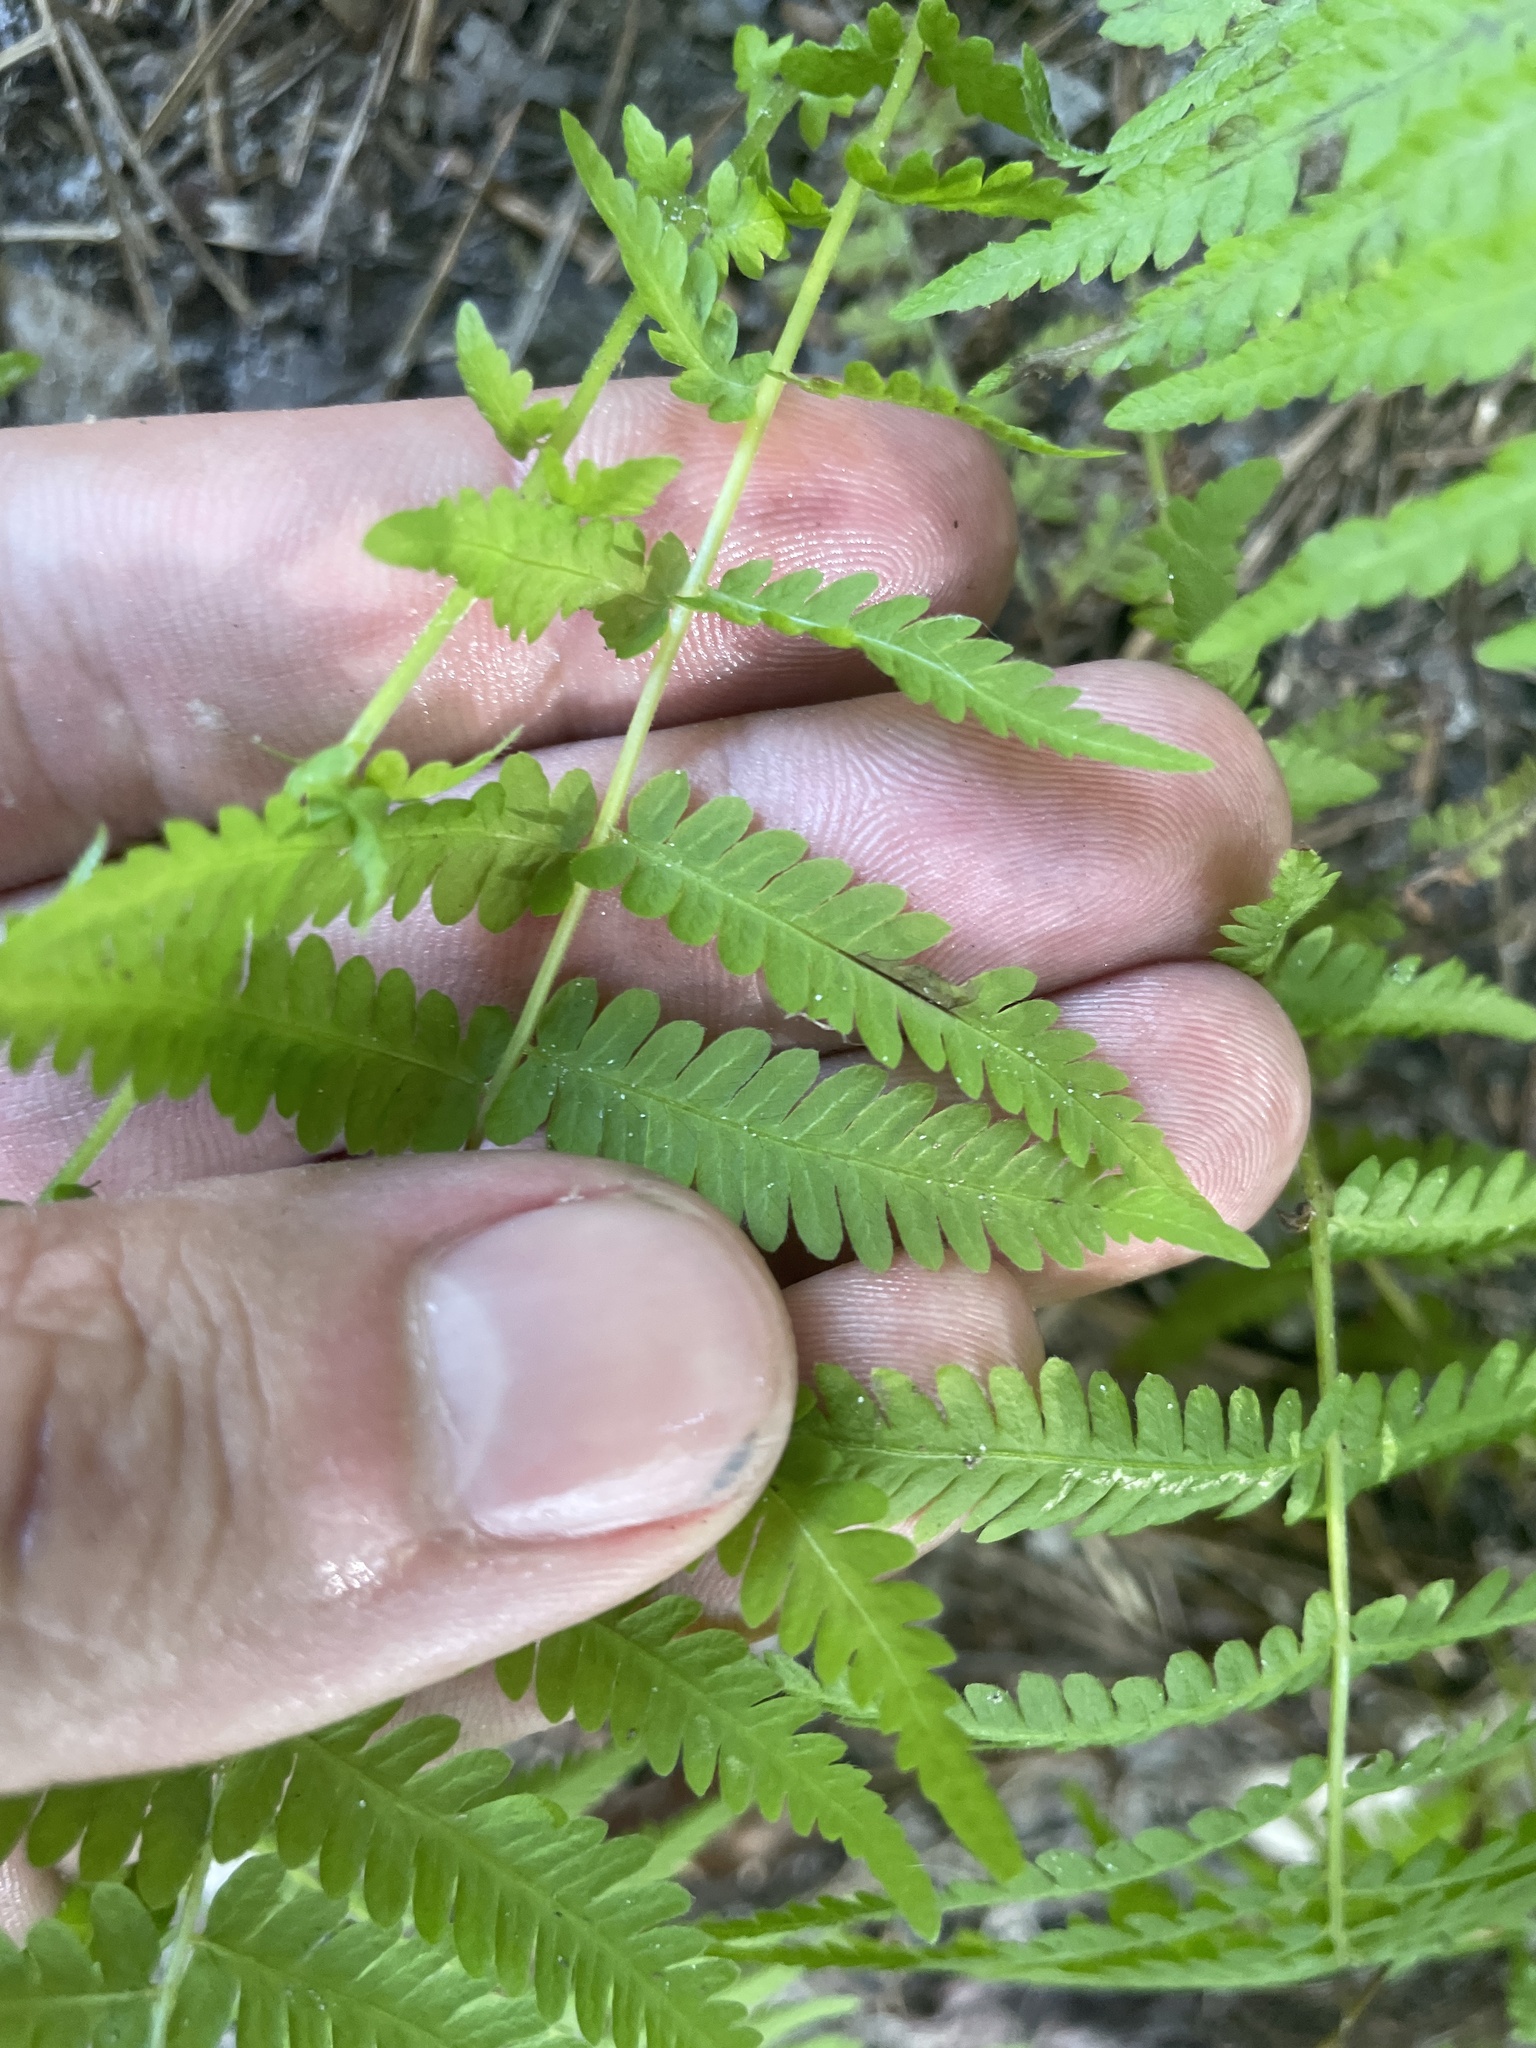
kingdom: Plantae
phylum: Tracheophyta
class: Polypodiopsida
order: Polypodiales
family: Thelypteridaceae
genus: Amauropelta
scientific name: Amauropelta noveboracensis
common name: New york fern
